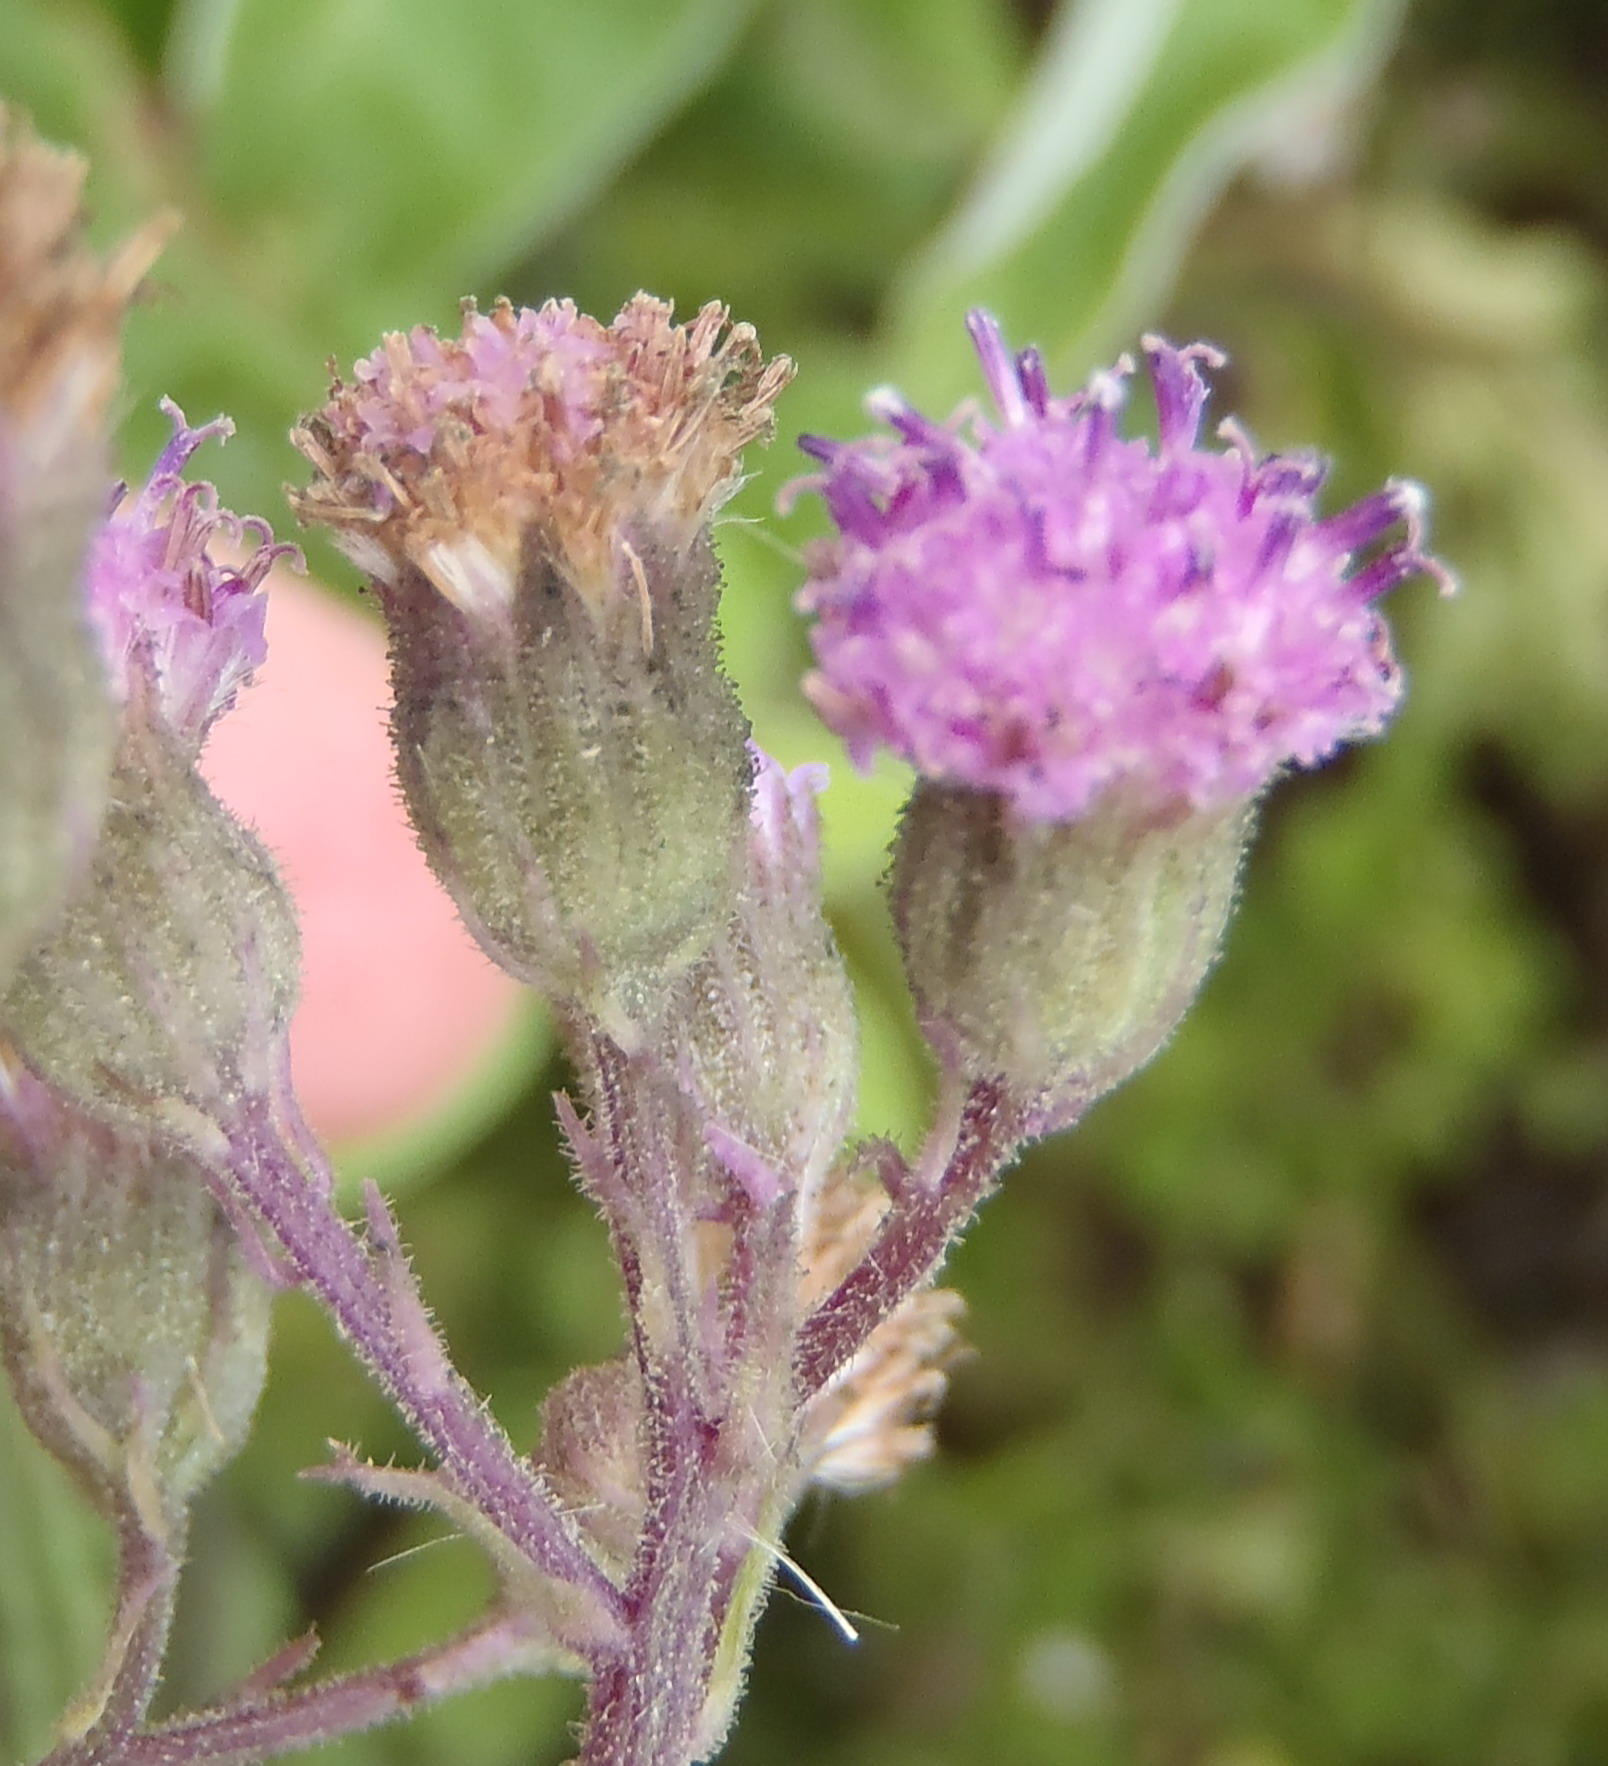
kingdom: Plantae
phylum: Tracheophyta
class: Magnoliopsida
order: Asterales
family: Asteraceae
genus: Senecio
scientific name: Senecio purpureus
